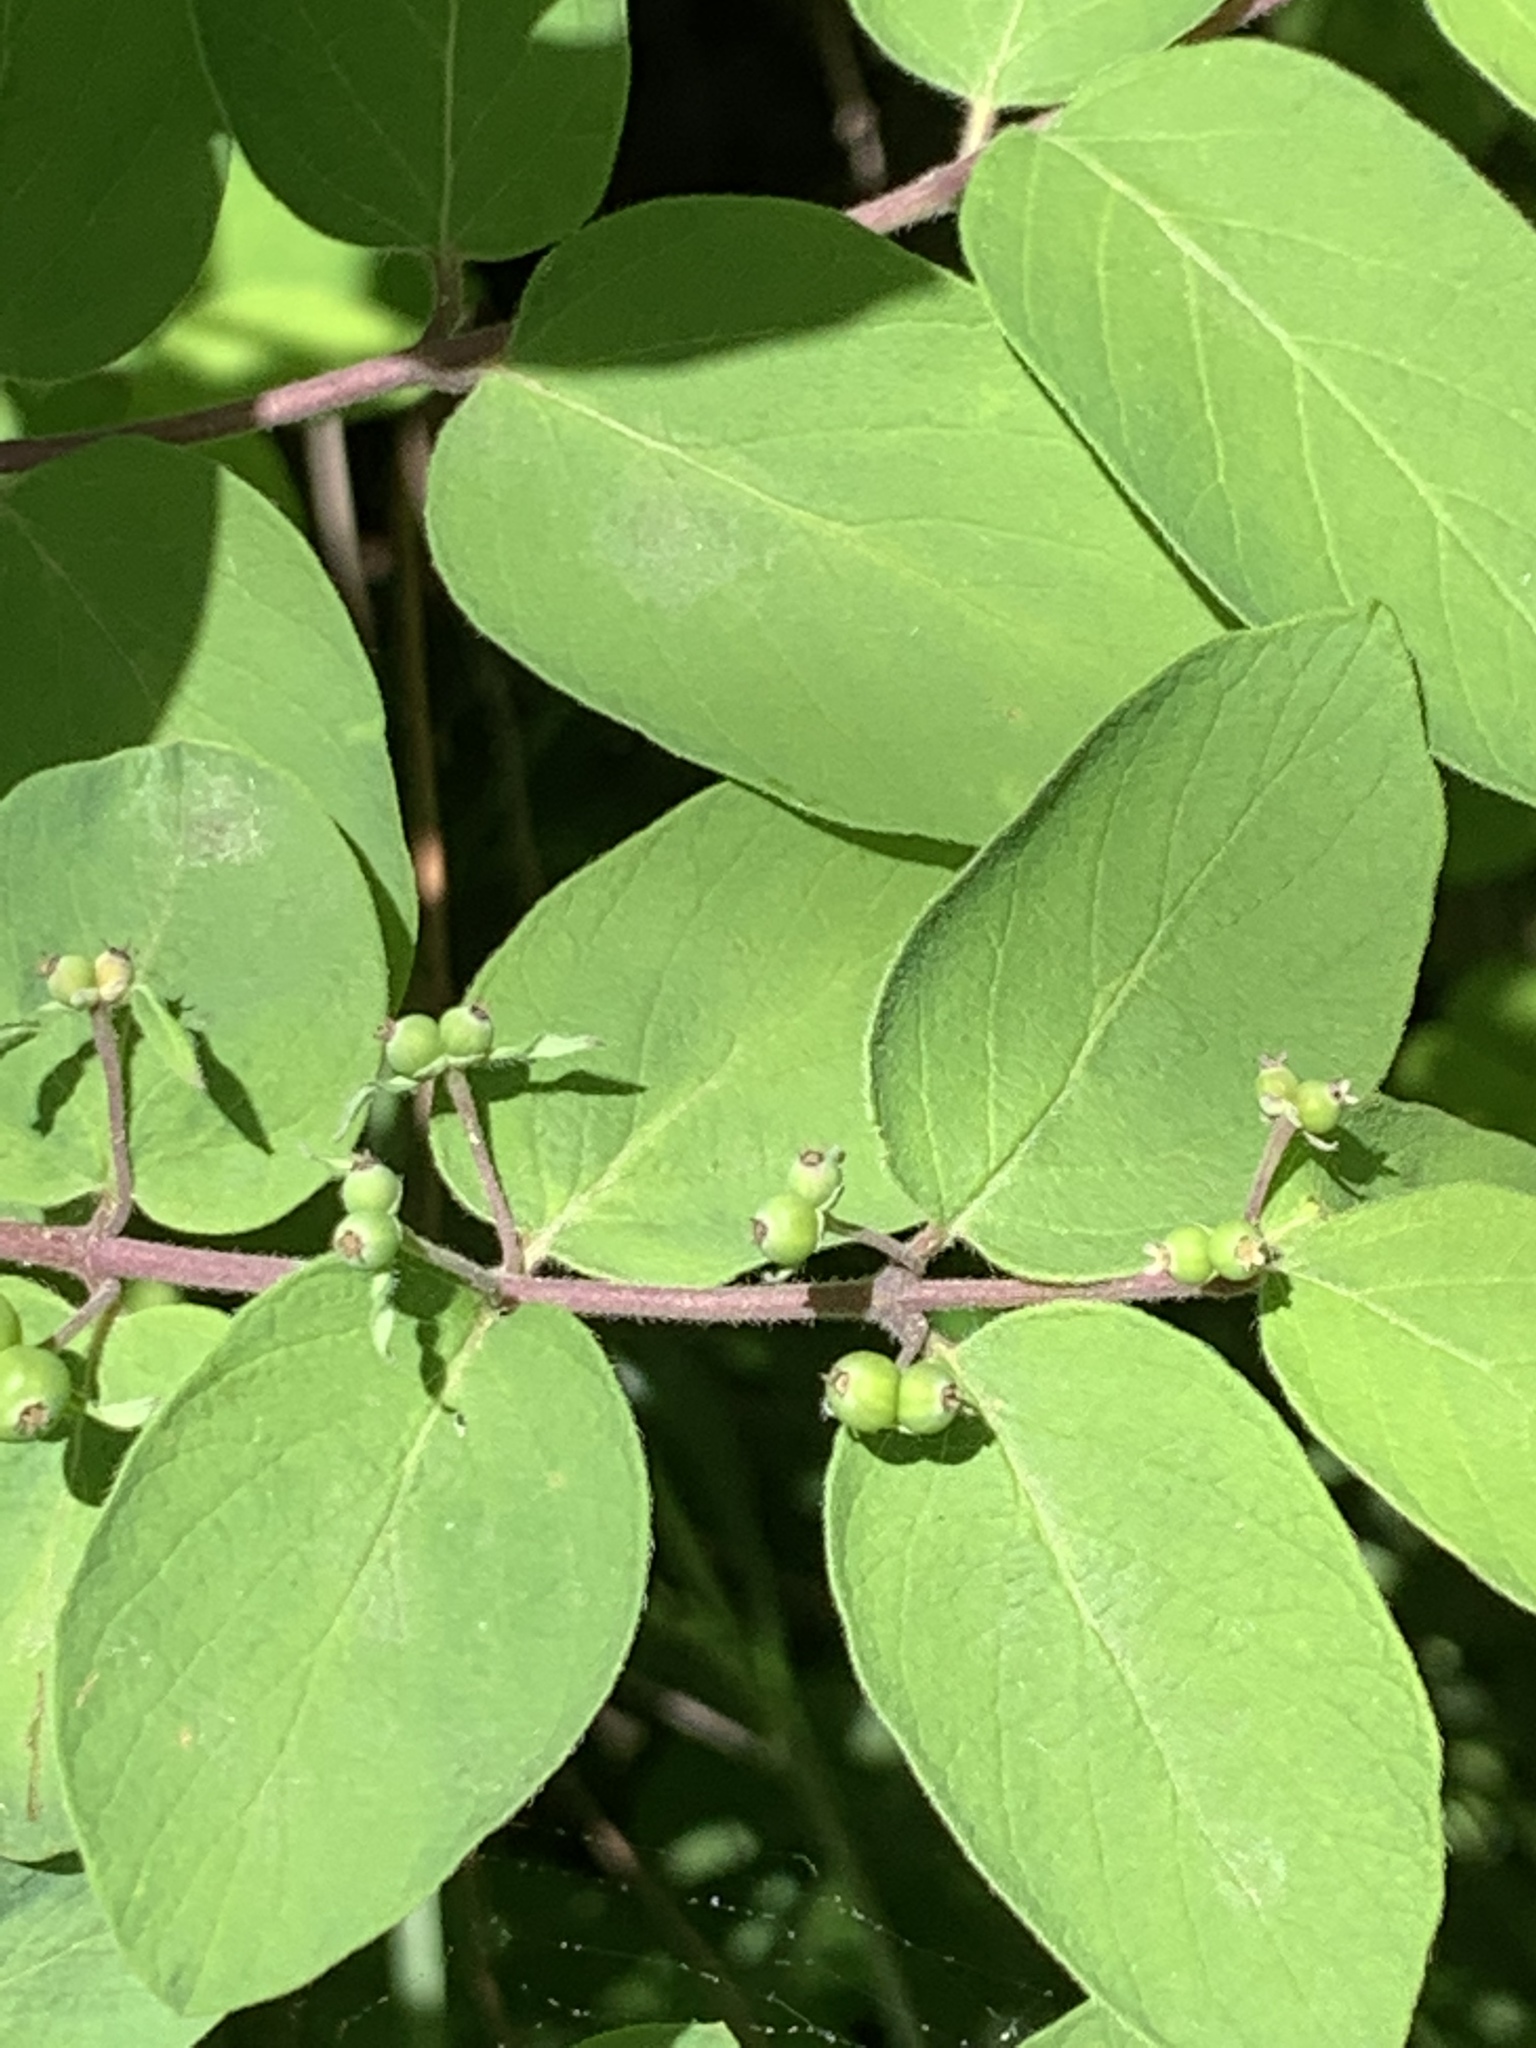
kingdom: Plantae
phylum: Tracheophyta
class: Magnoliopsida
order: Dipsacales
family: Caprifoliaceae
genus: Lonicera
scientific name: Lonicera
